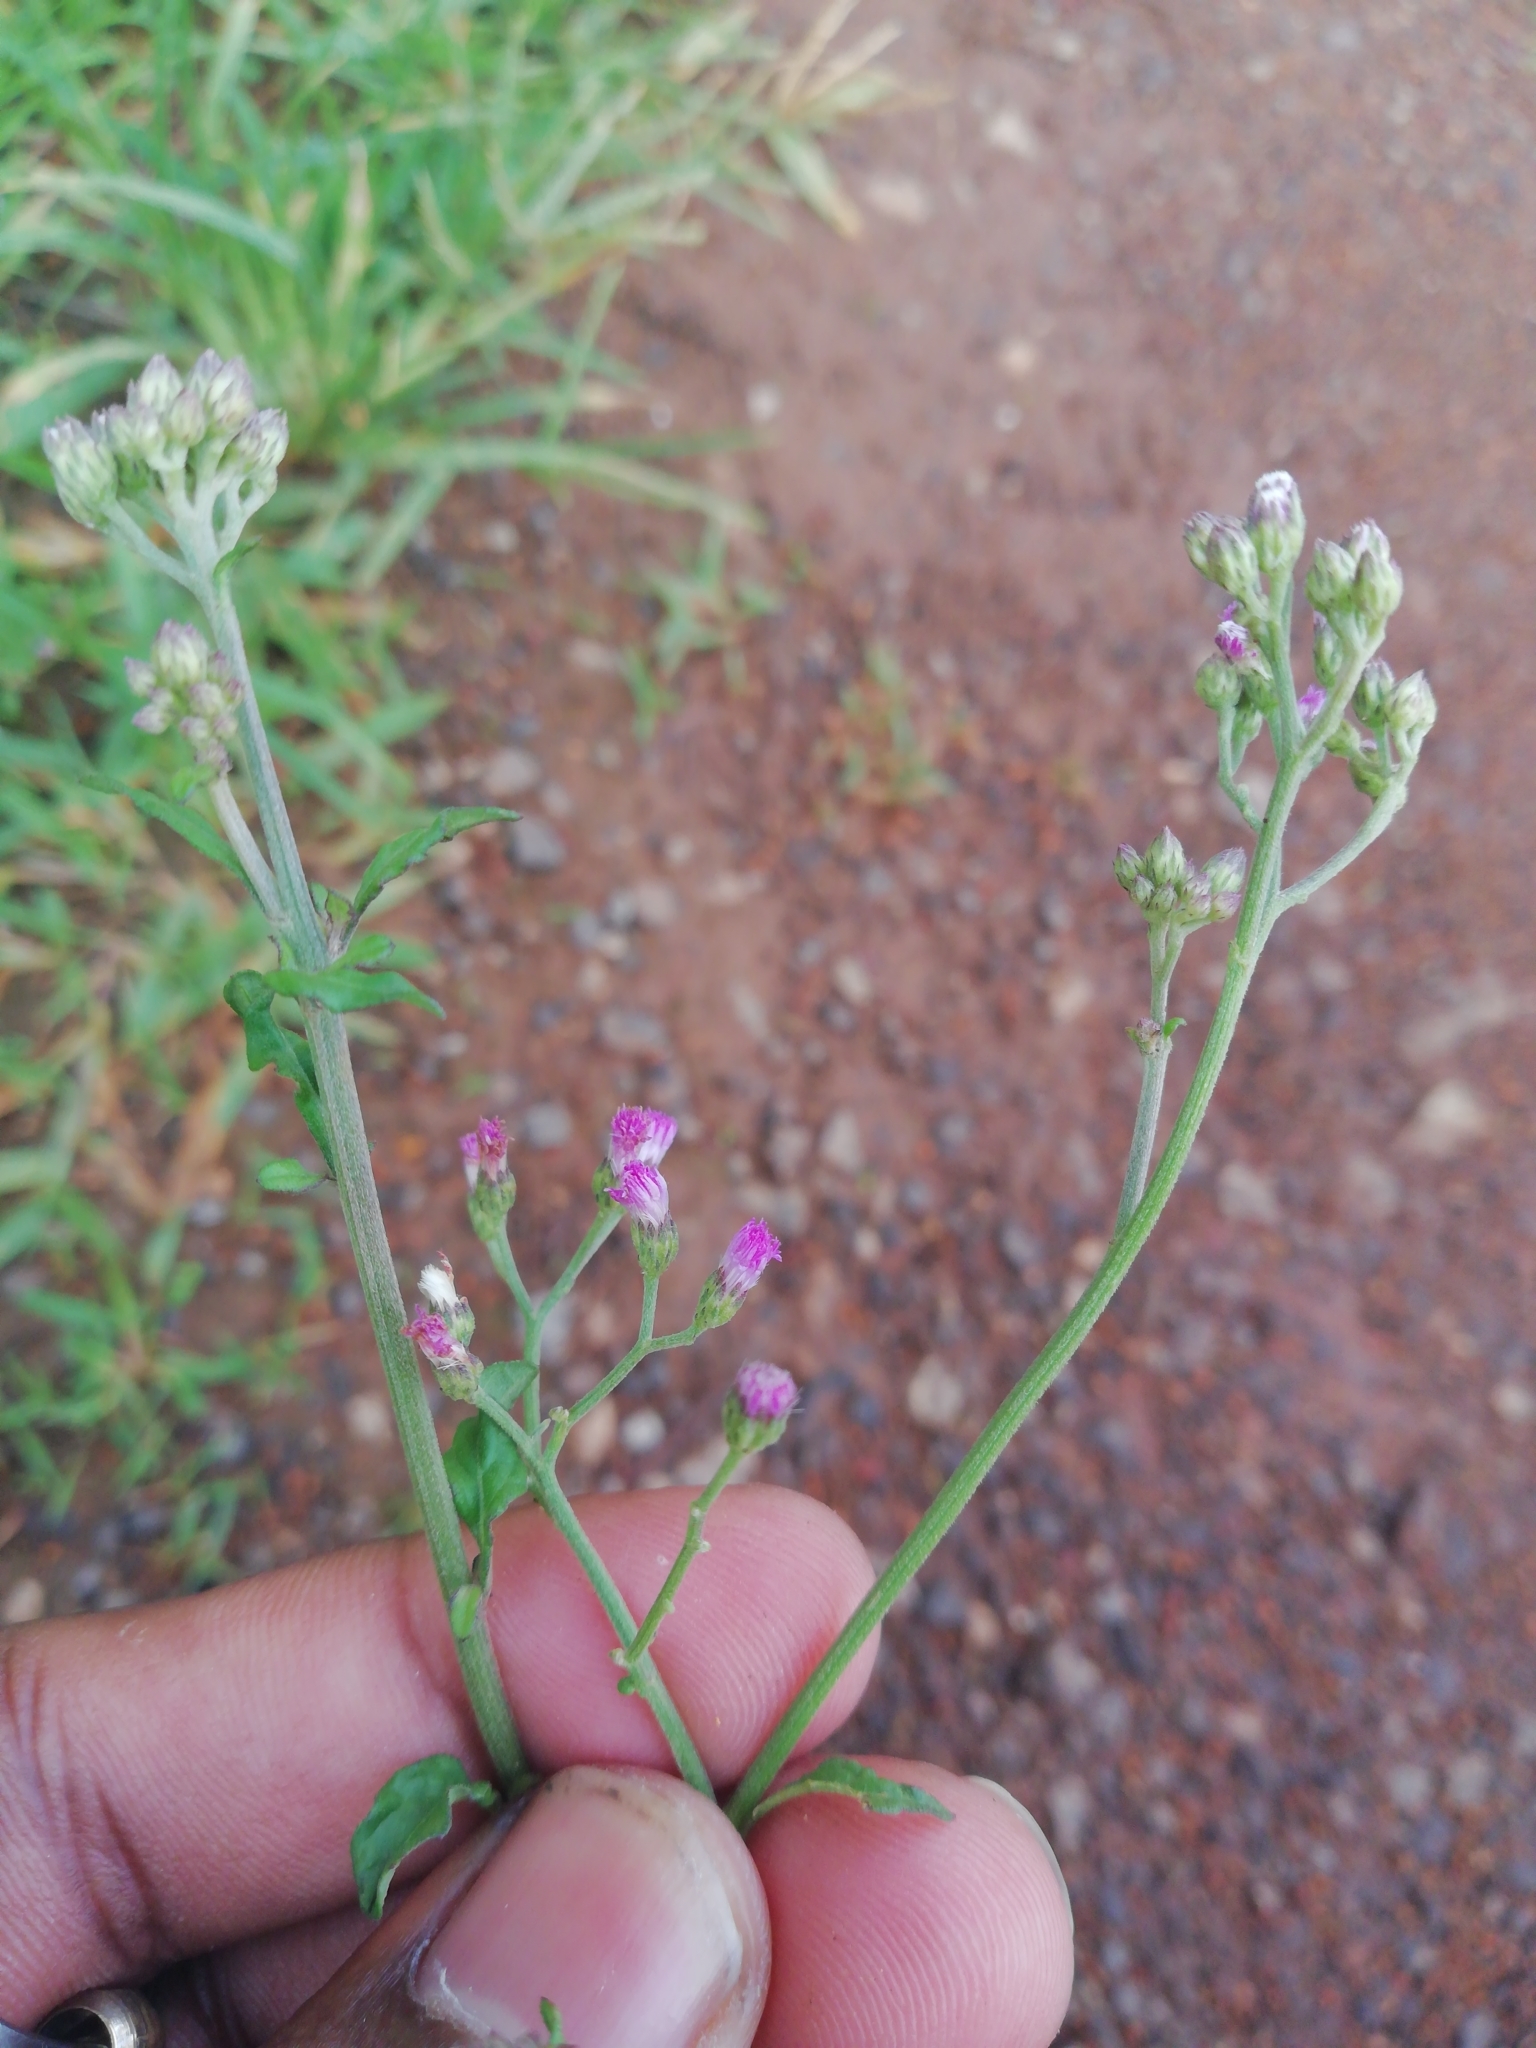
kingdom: Plantae
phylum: Tracheophyta
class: Magnoliopsida
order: Asterales
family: Asteraceae
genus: Cyanthillium
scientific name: Cyanthillium cinereum
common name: Little ironweed
